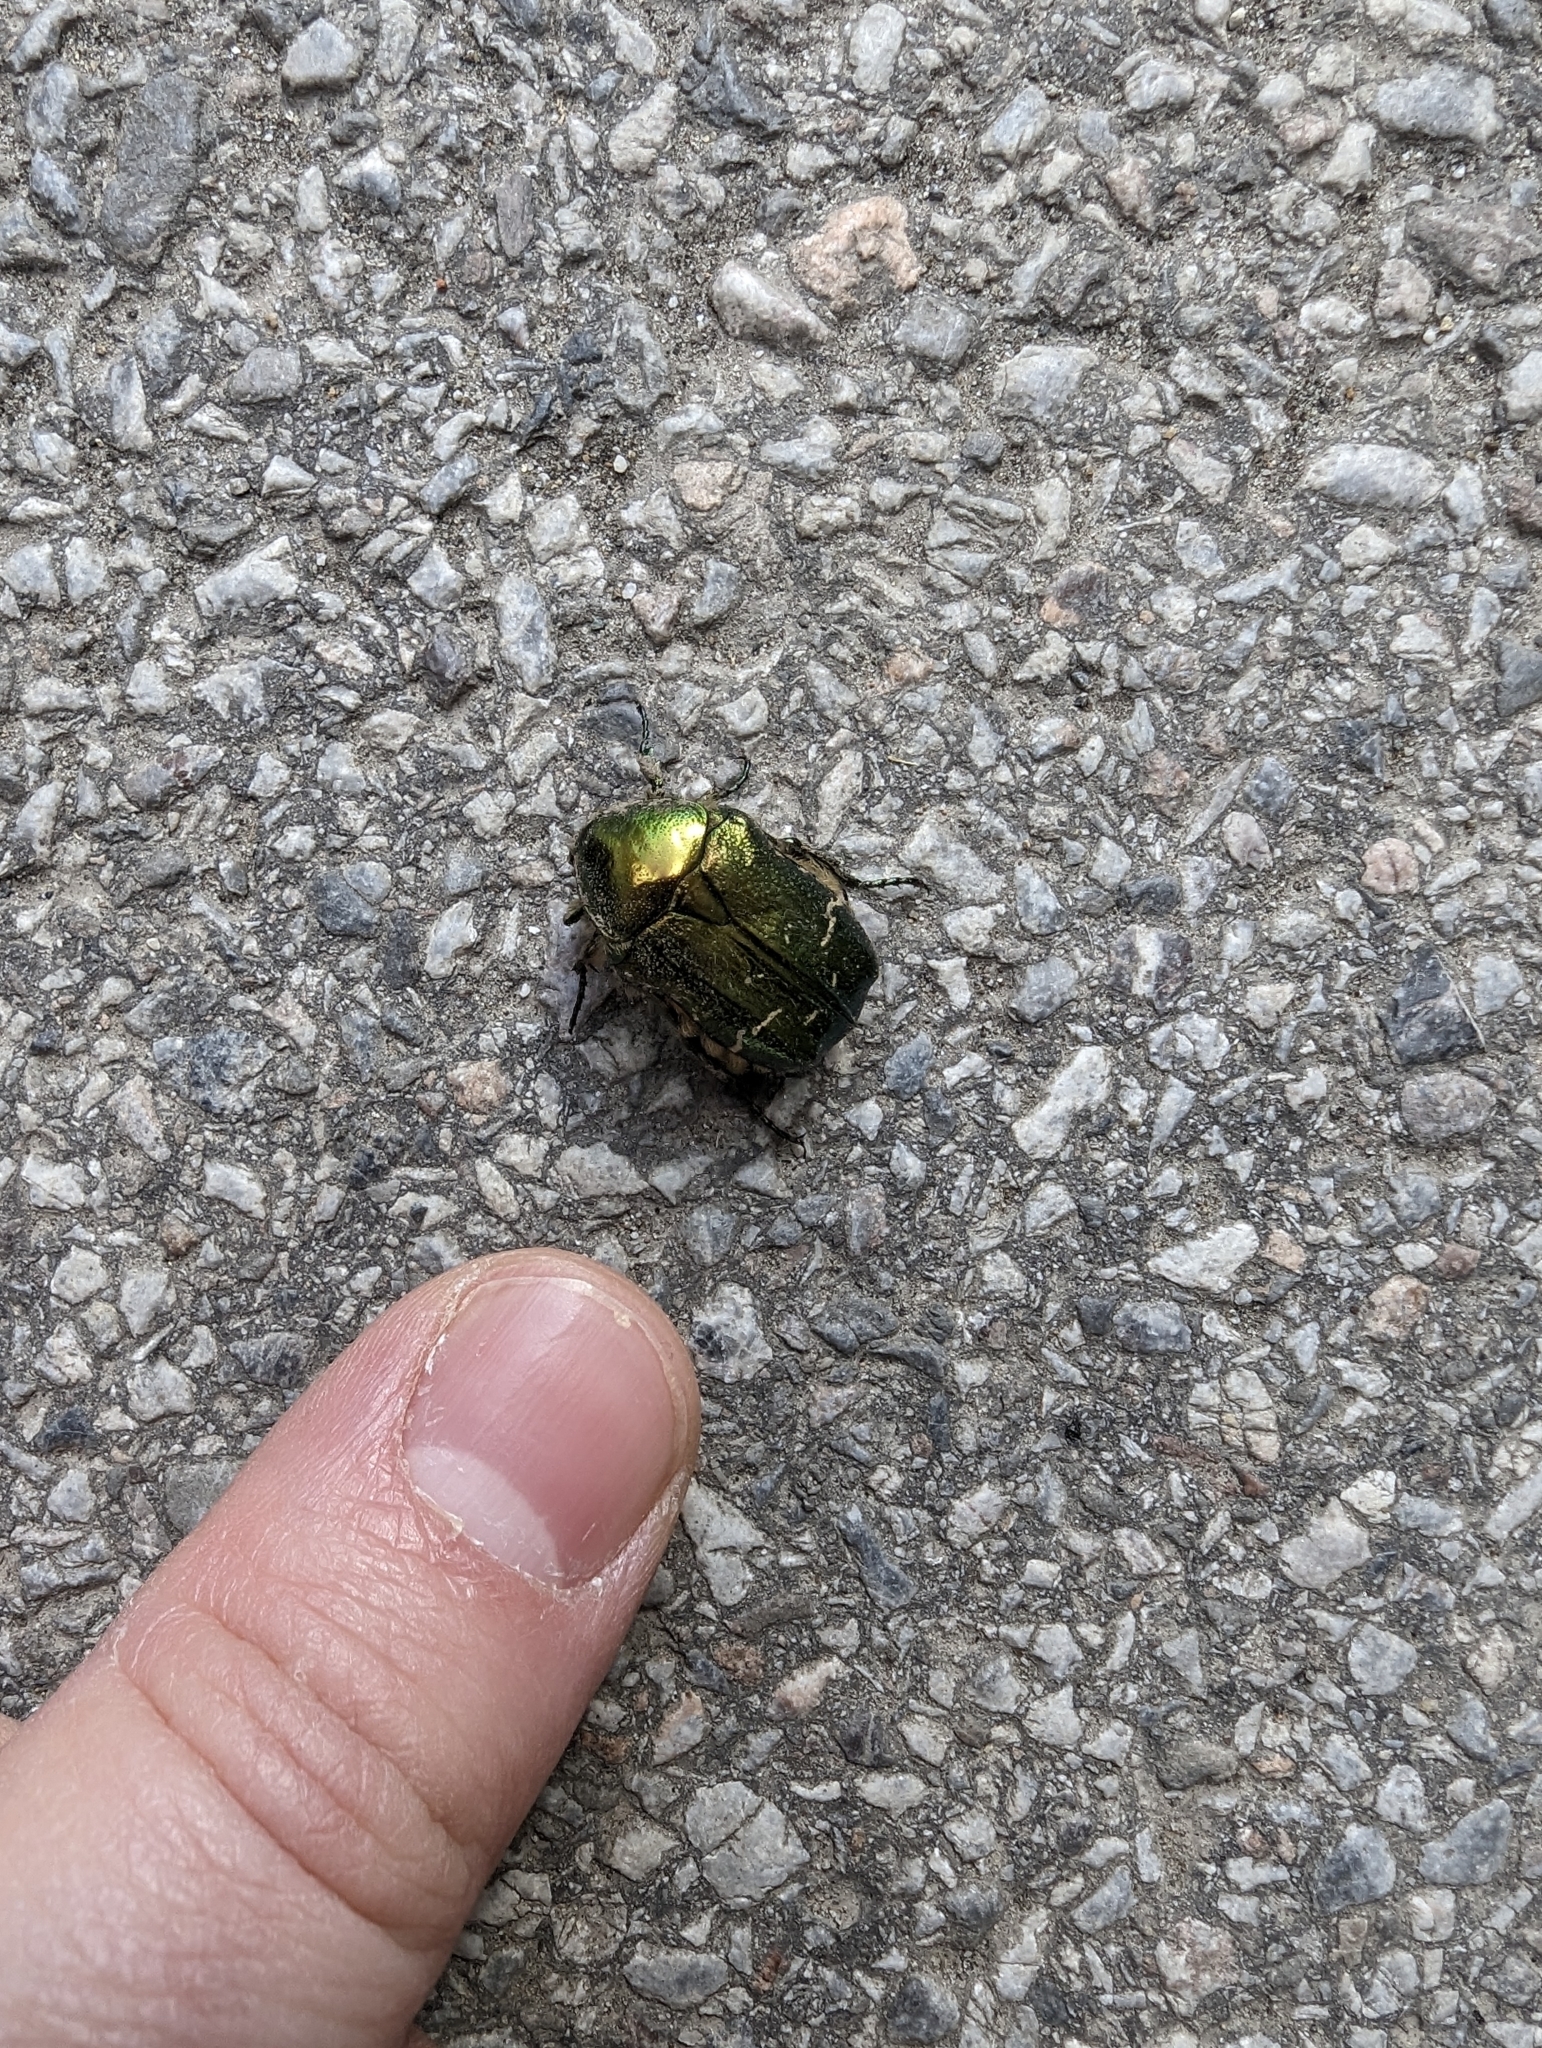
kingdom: Animalia
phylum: Arthropoda
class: Insecta
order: Coleoptera
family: Scarabaeidae
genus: Cetonia
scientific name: Cetonia aurata
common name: Rose chafer
